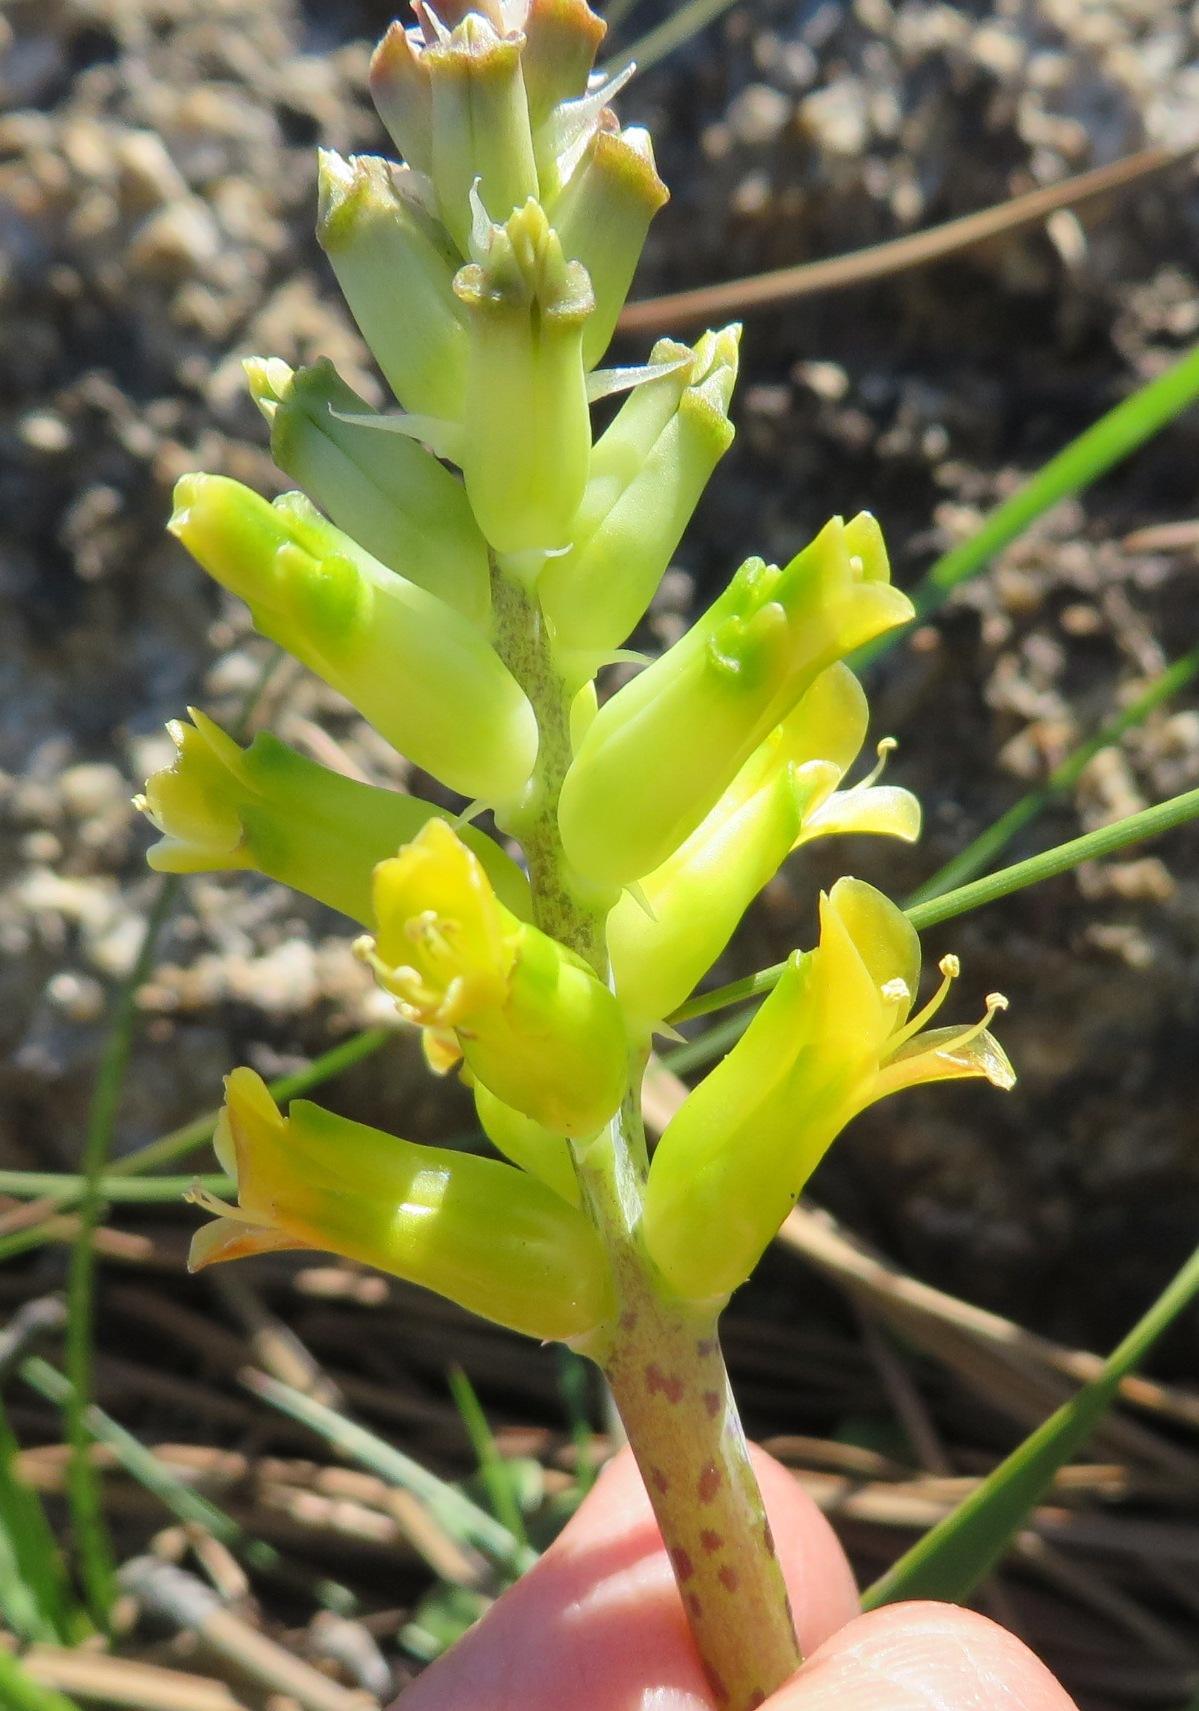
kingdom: Plantae
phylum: Tracheophyta
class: Liliopsida
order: Asparagales
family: Asparagaceae
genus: Lachenalia
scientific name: Lachenalia lutea
